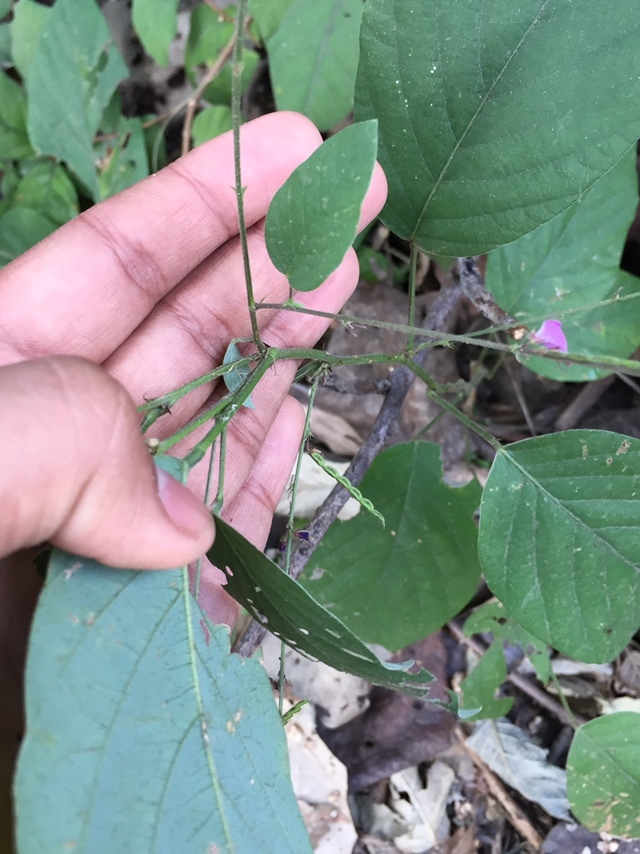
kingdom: Plantae
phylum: Tracheophyta
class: Magnoliopsida
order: Fabales
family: Fabaceae
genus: Pleurolobus
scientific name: Pleurolobus gangeticus
